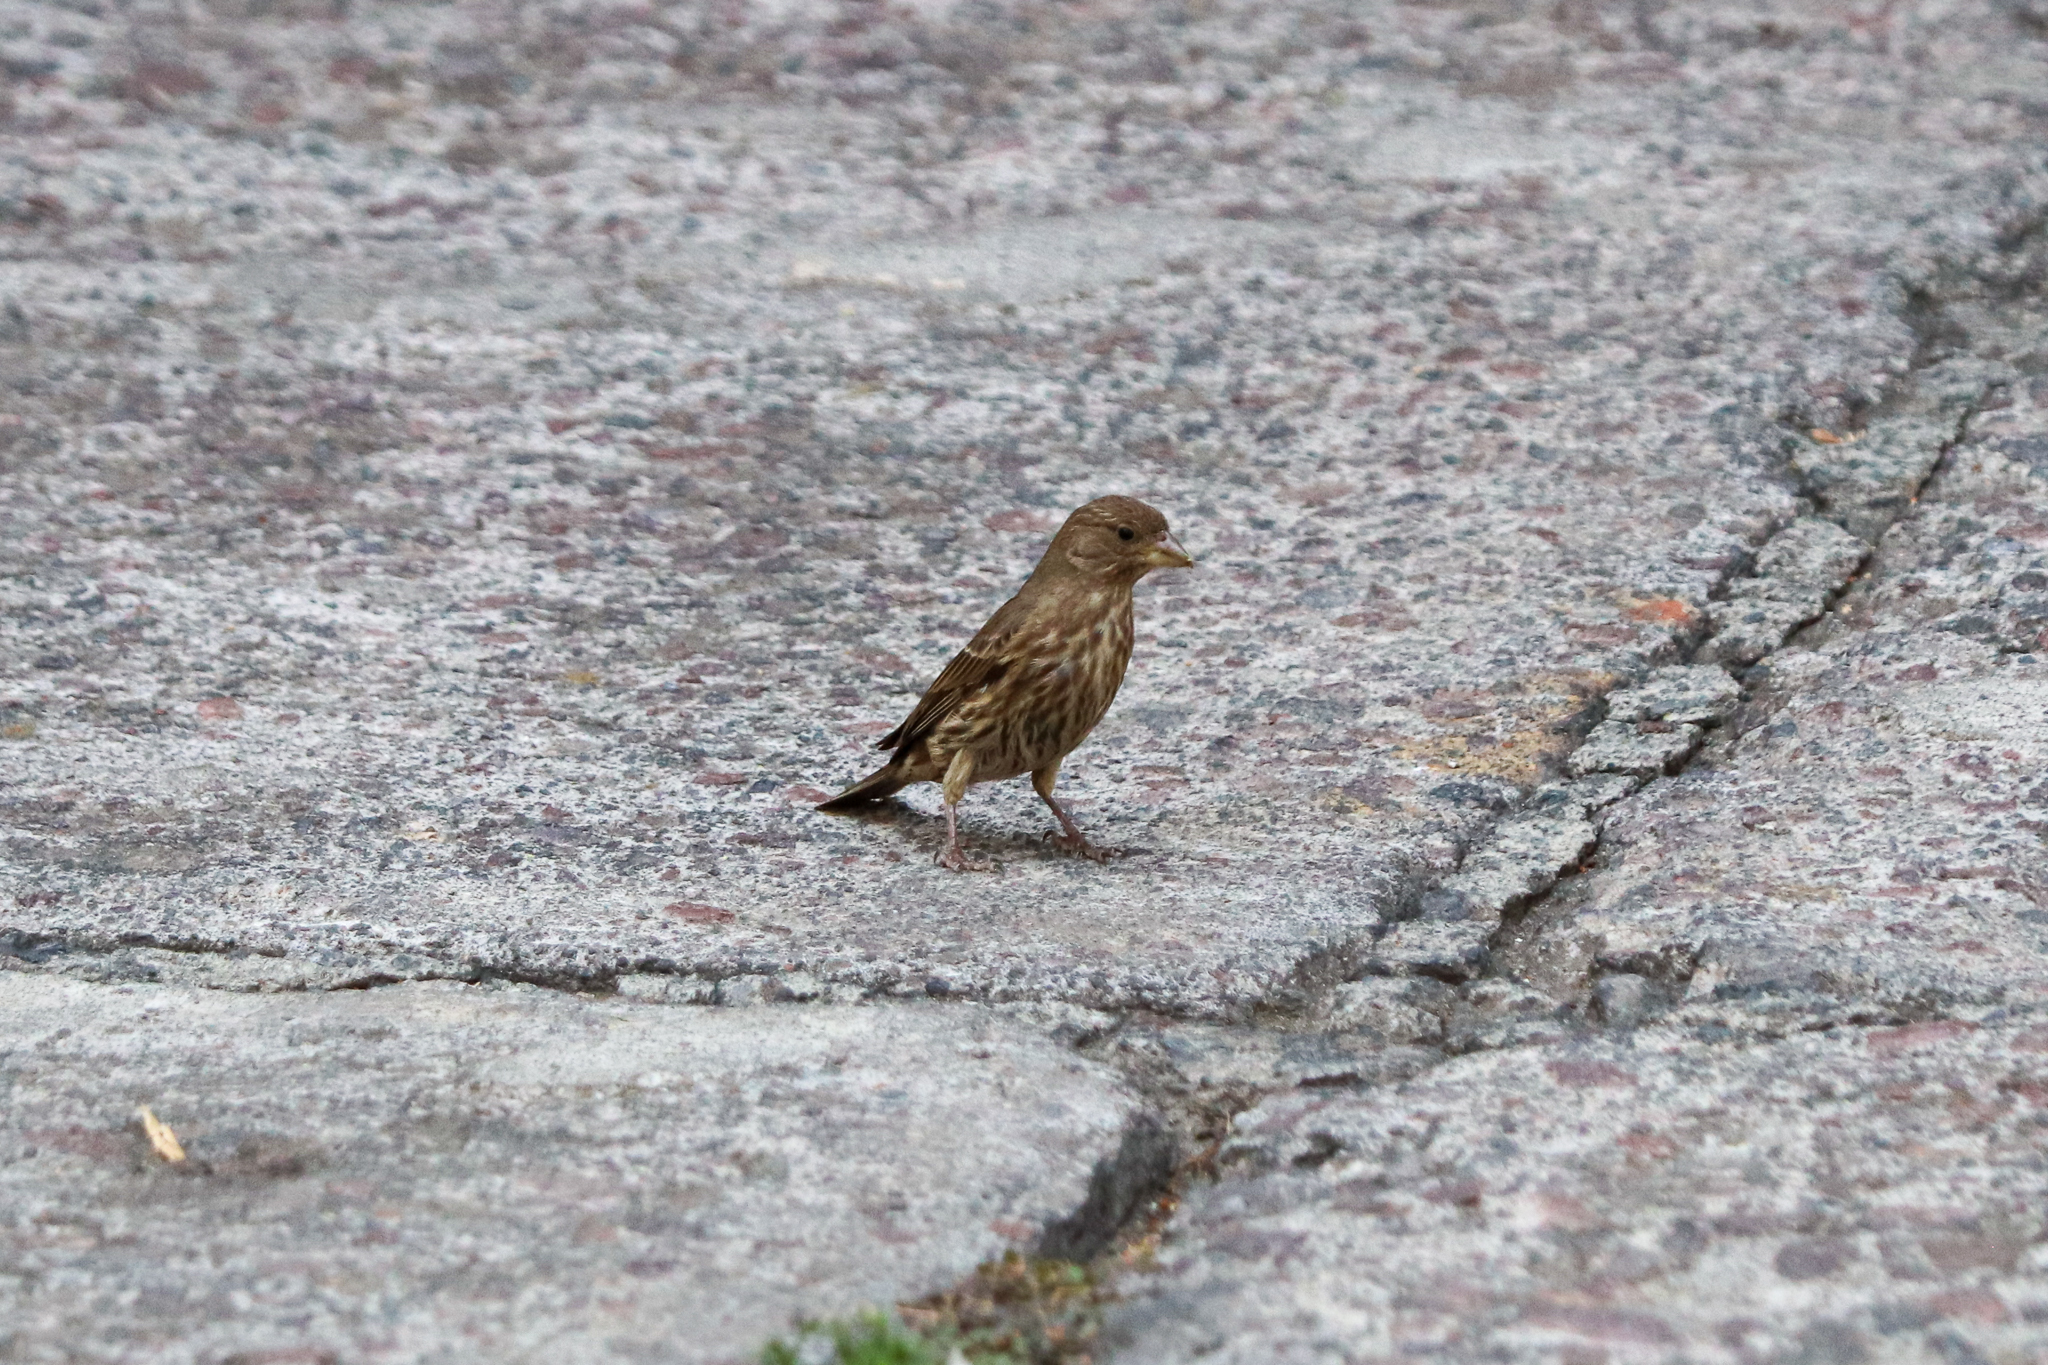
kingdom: Animalia
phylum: Chordata
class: Aves
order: Passeriformes
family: Fringillidae
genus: Haemorhous
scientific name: Haemorhous mexicanus
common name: House finch
